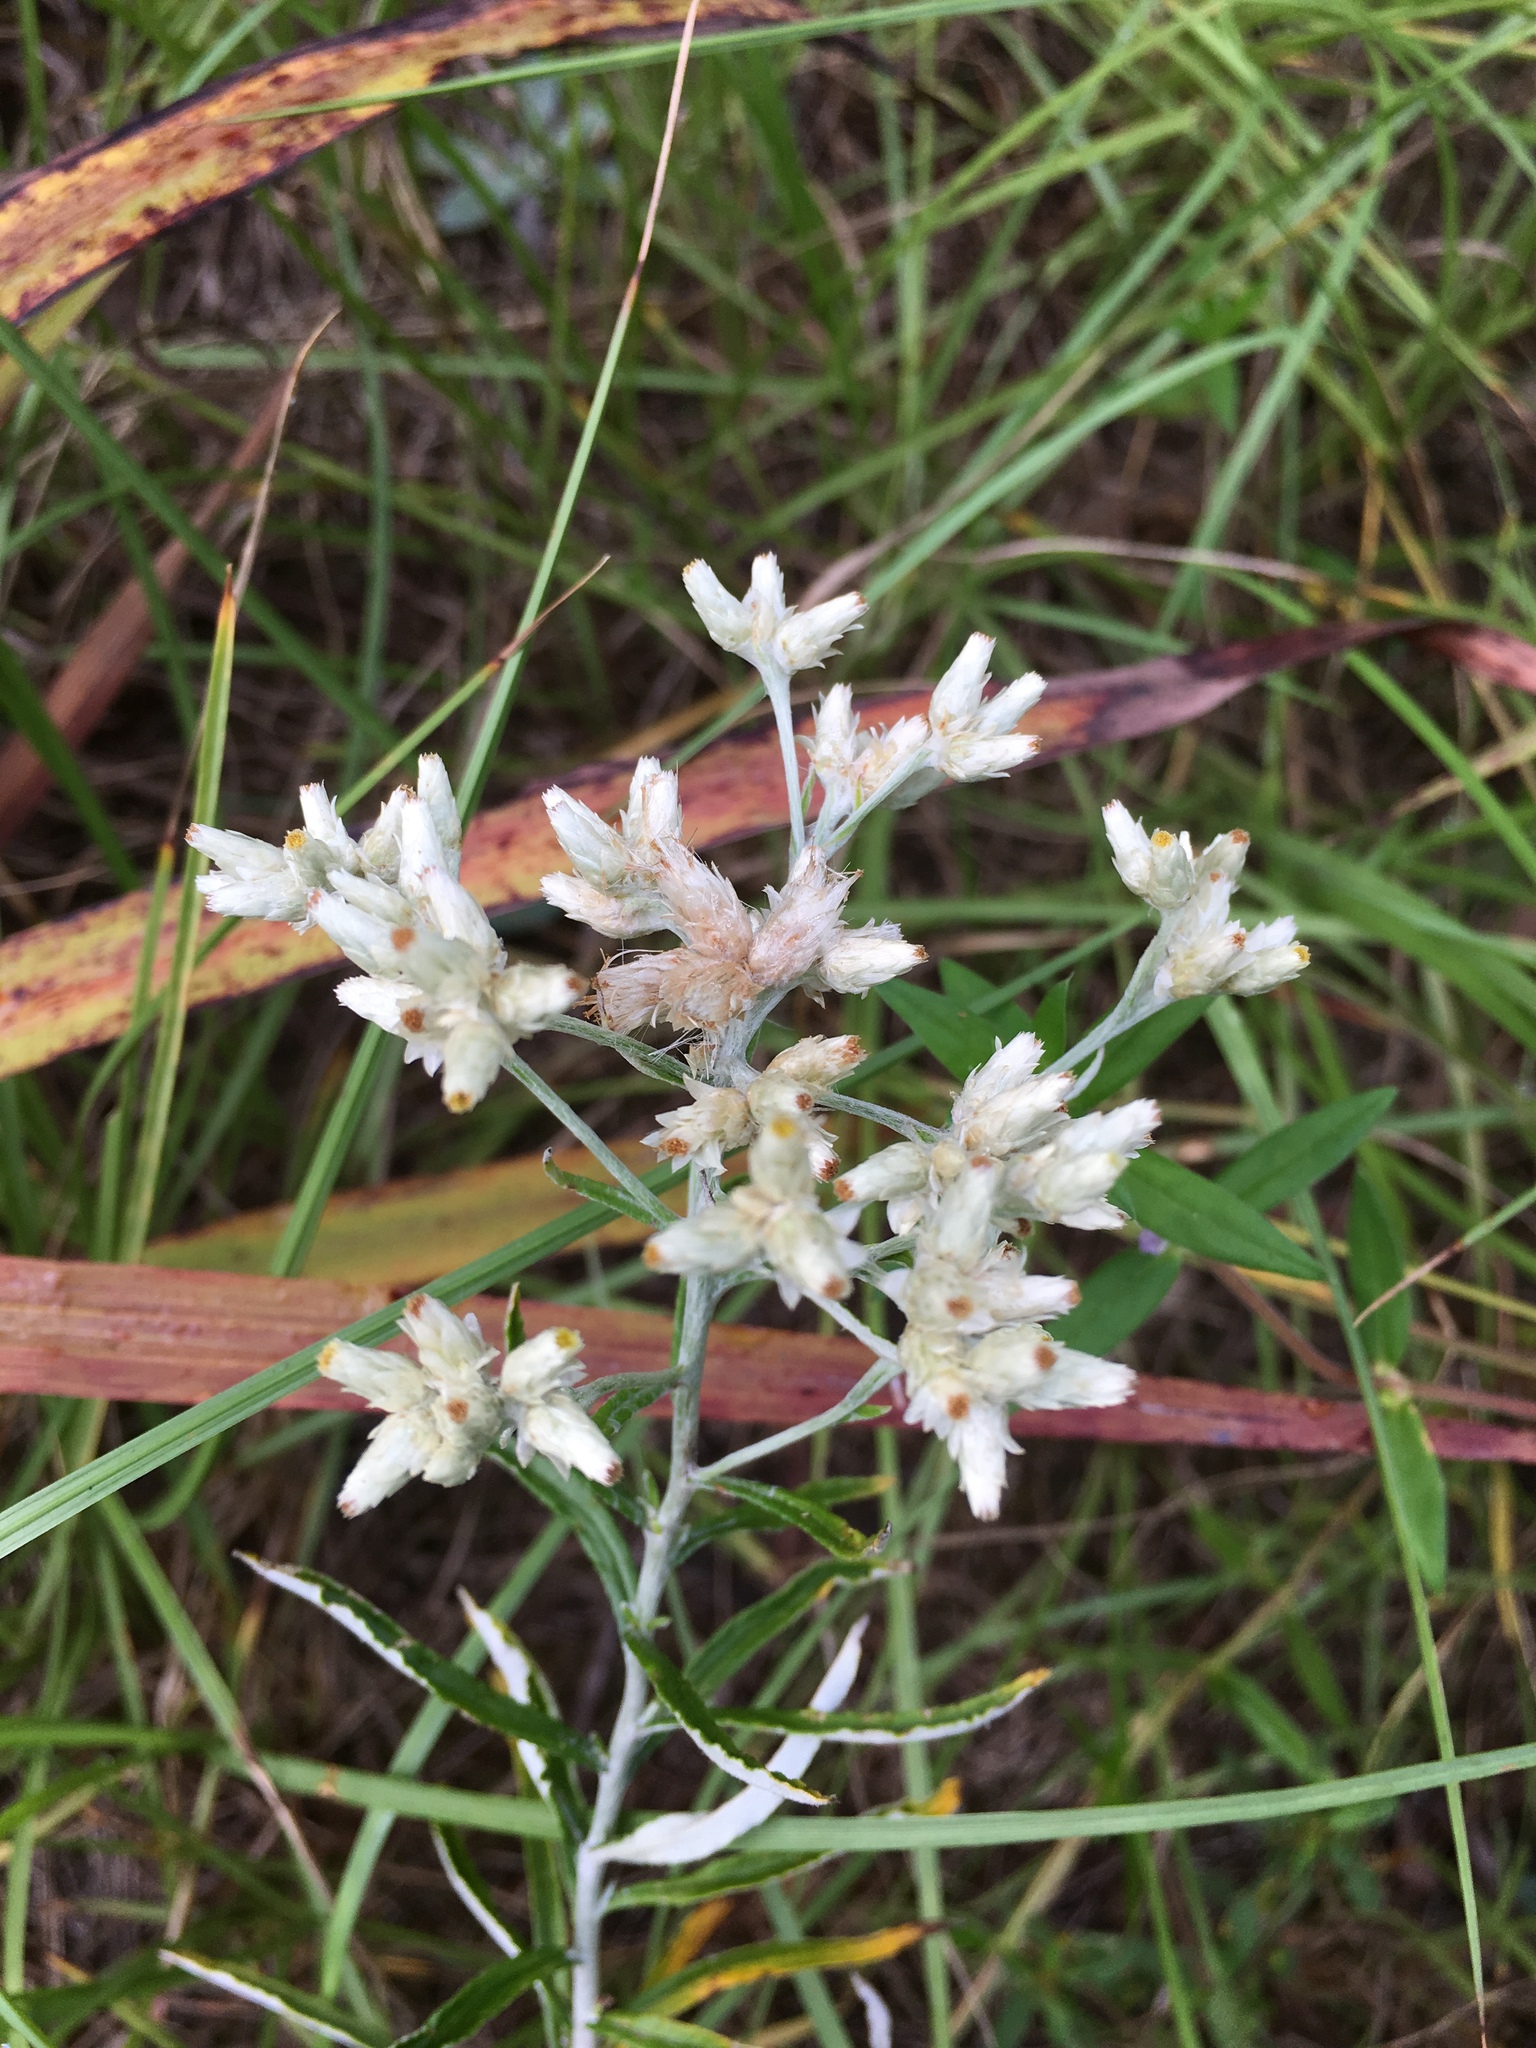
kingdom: Plantae
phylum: Tracheophyta
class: Magnoliopsida
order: Asterales
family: Asteraceae
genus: Pseudognaphalium
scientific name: Pseudognaphalium obtusifolium
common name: Eastern rabbit-tobacco
